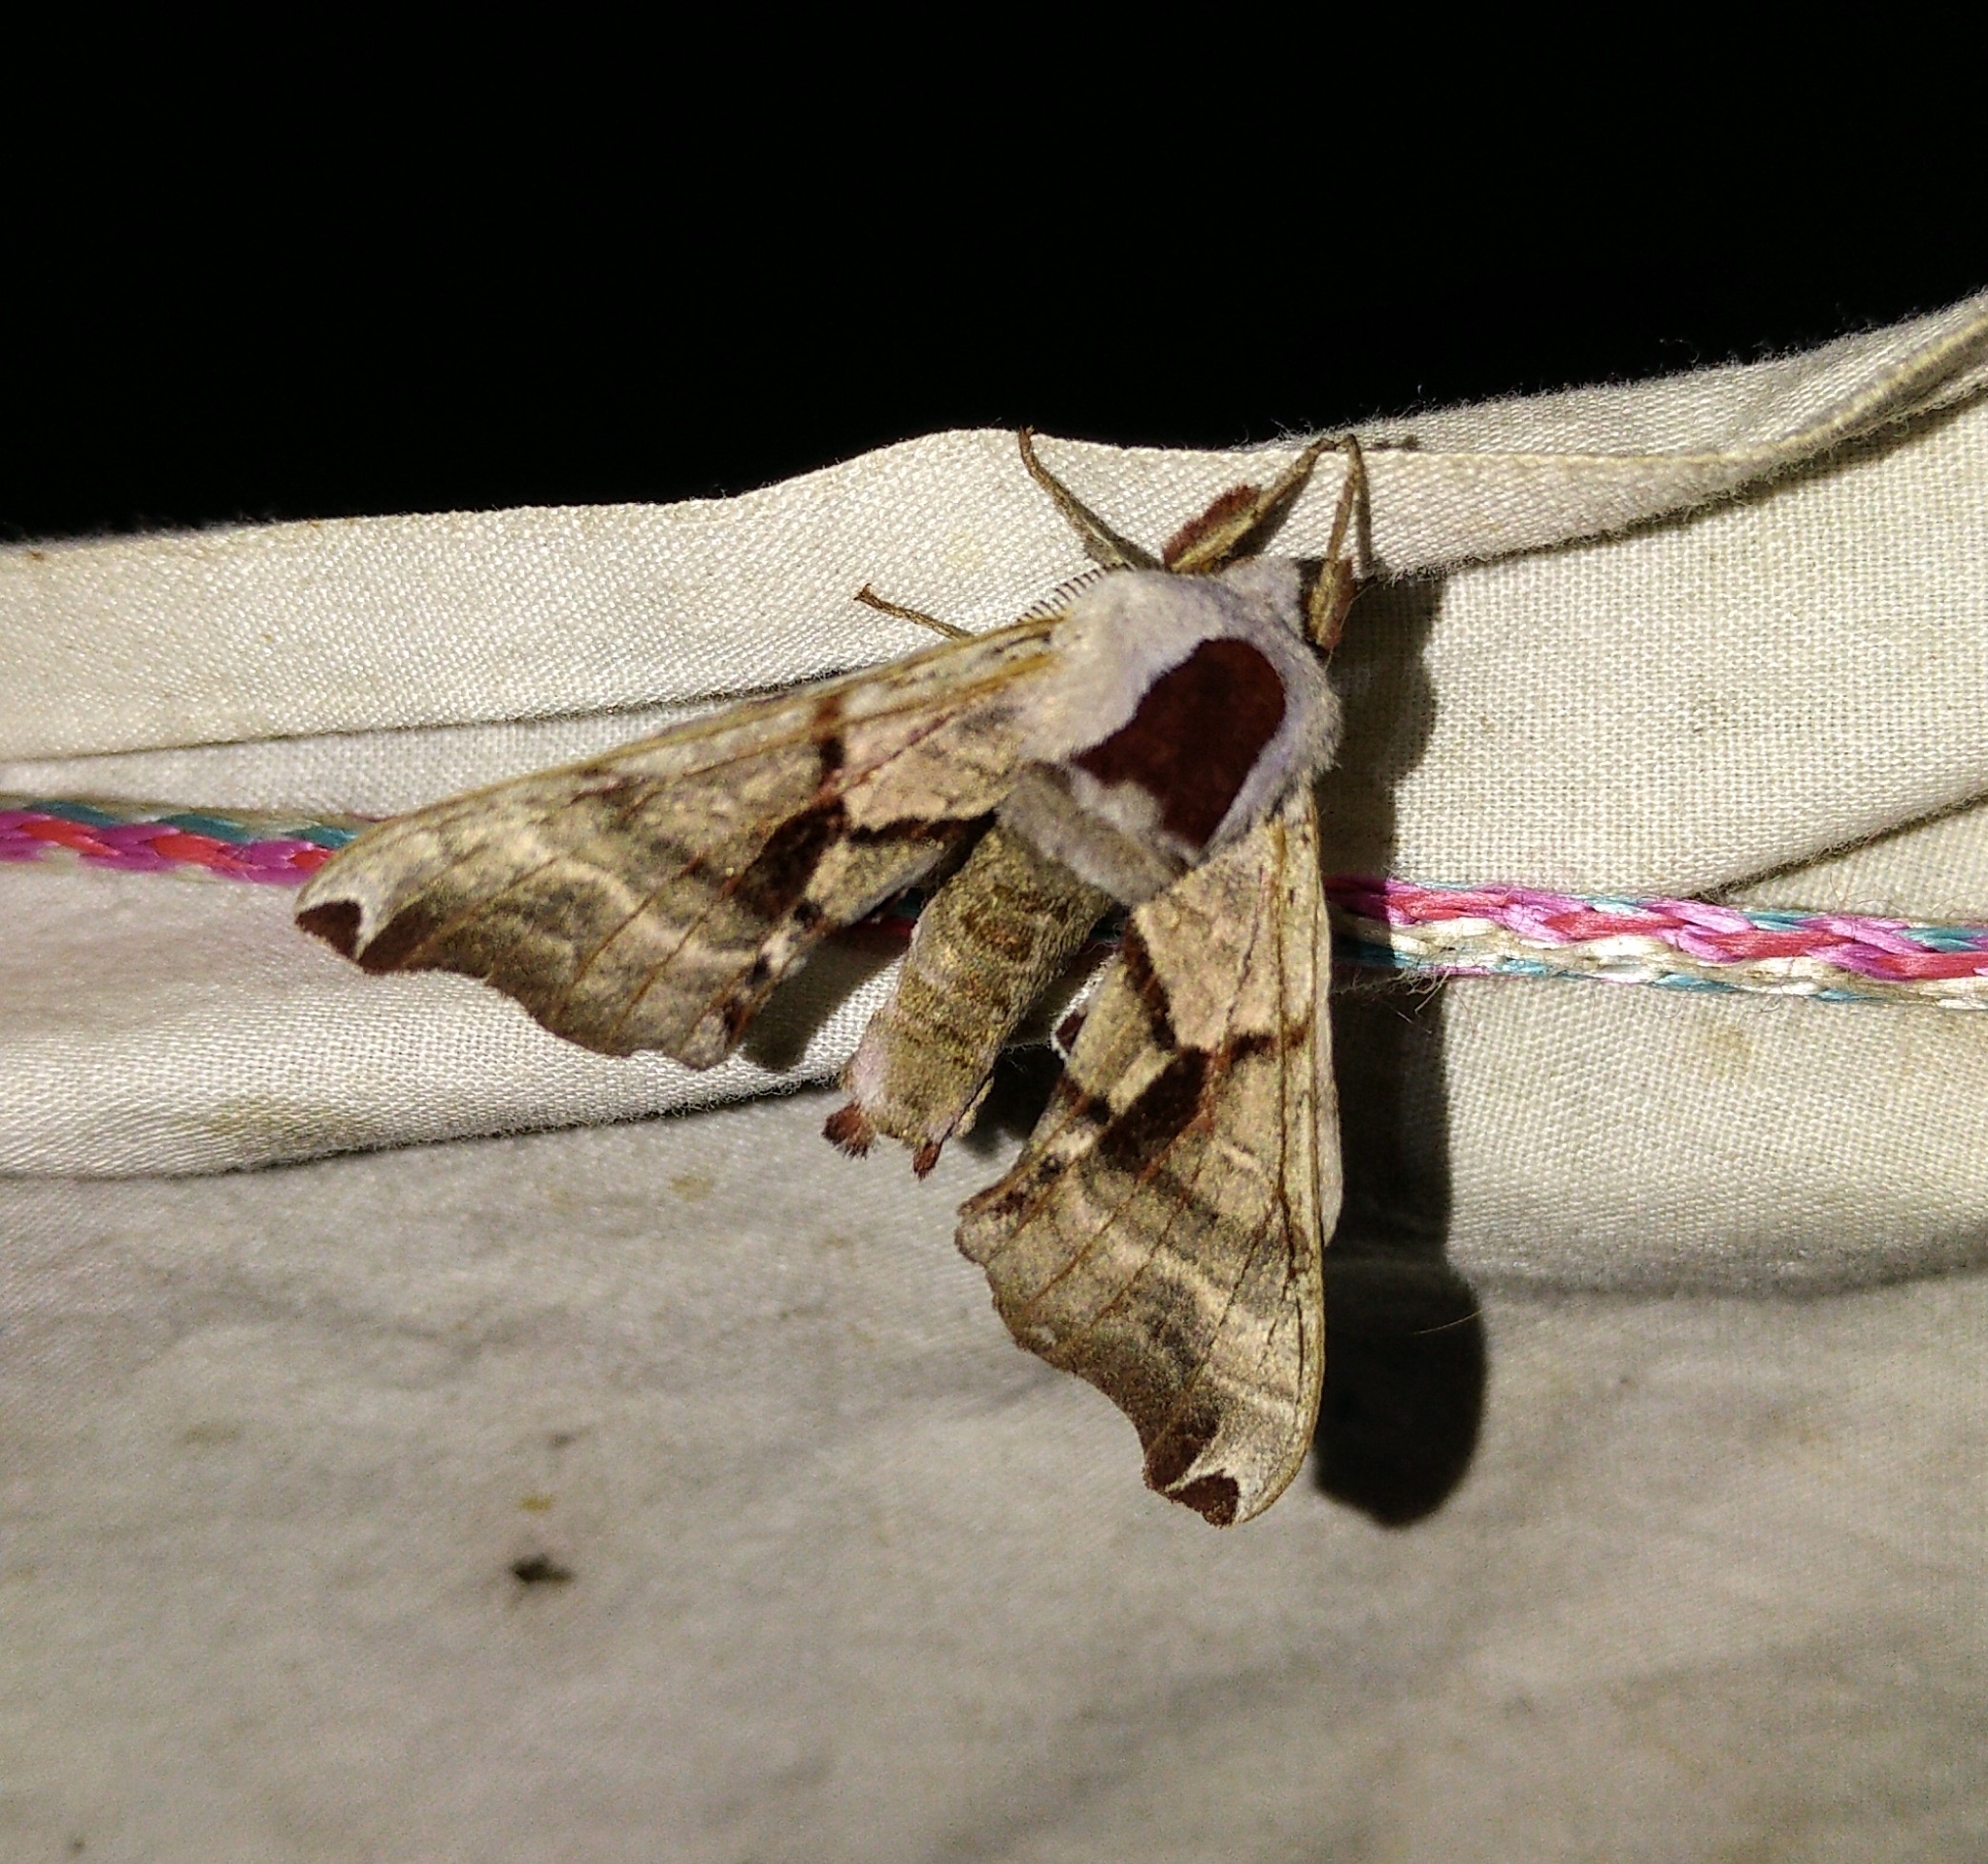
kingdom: Animalia
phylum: Arthropoda
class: Insecta
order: Lepidoptera
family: Sphingidae
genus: Smerinthus
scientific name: Smerinthus jamaicensis
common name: Twin spotted sphinx
